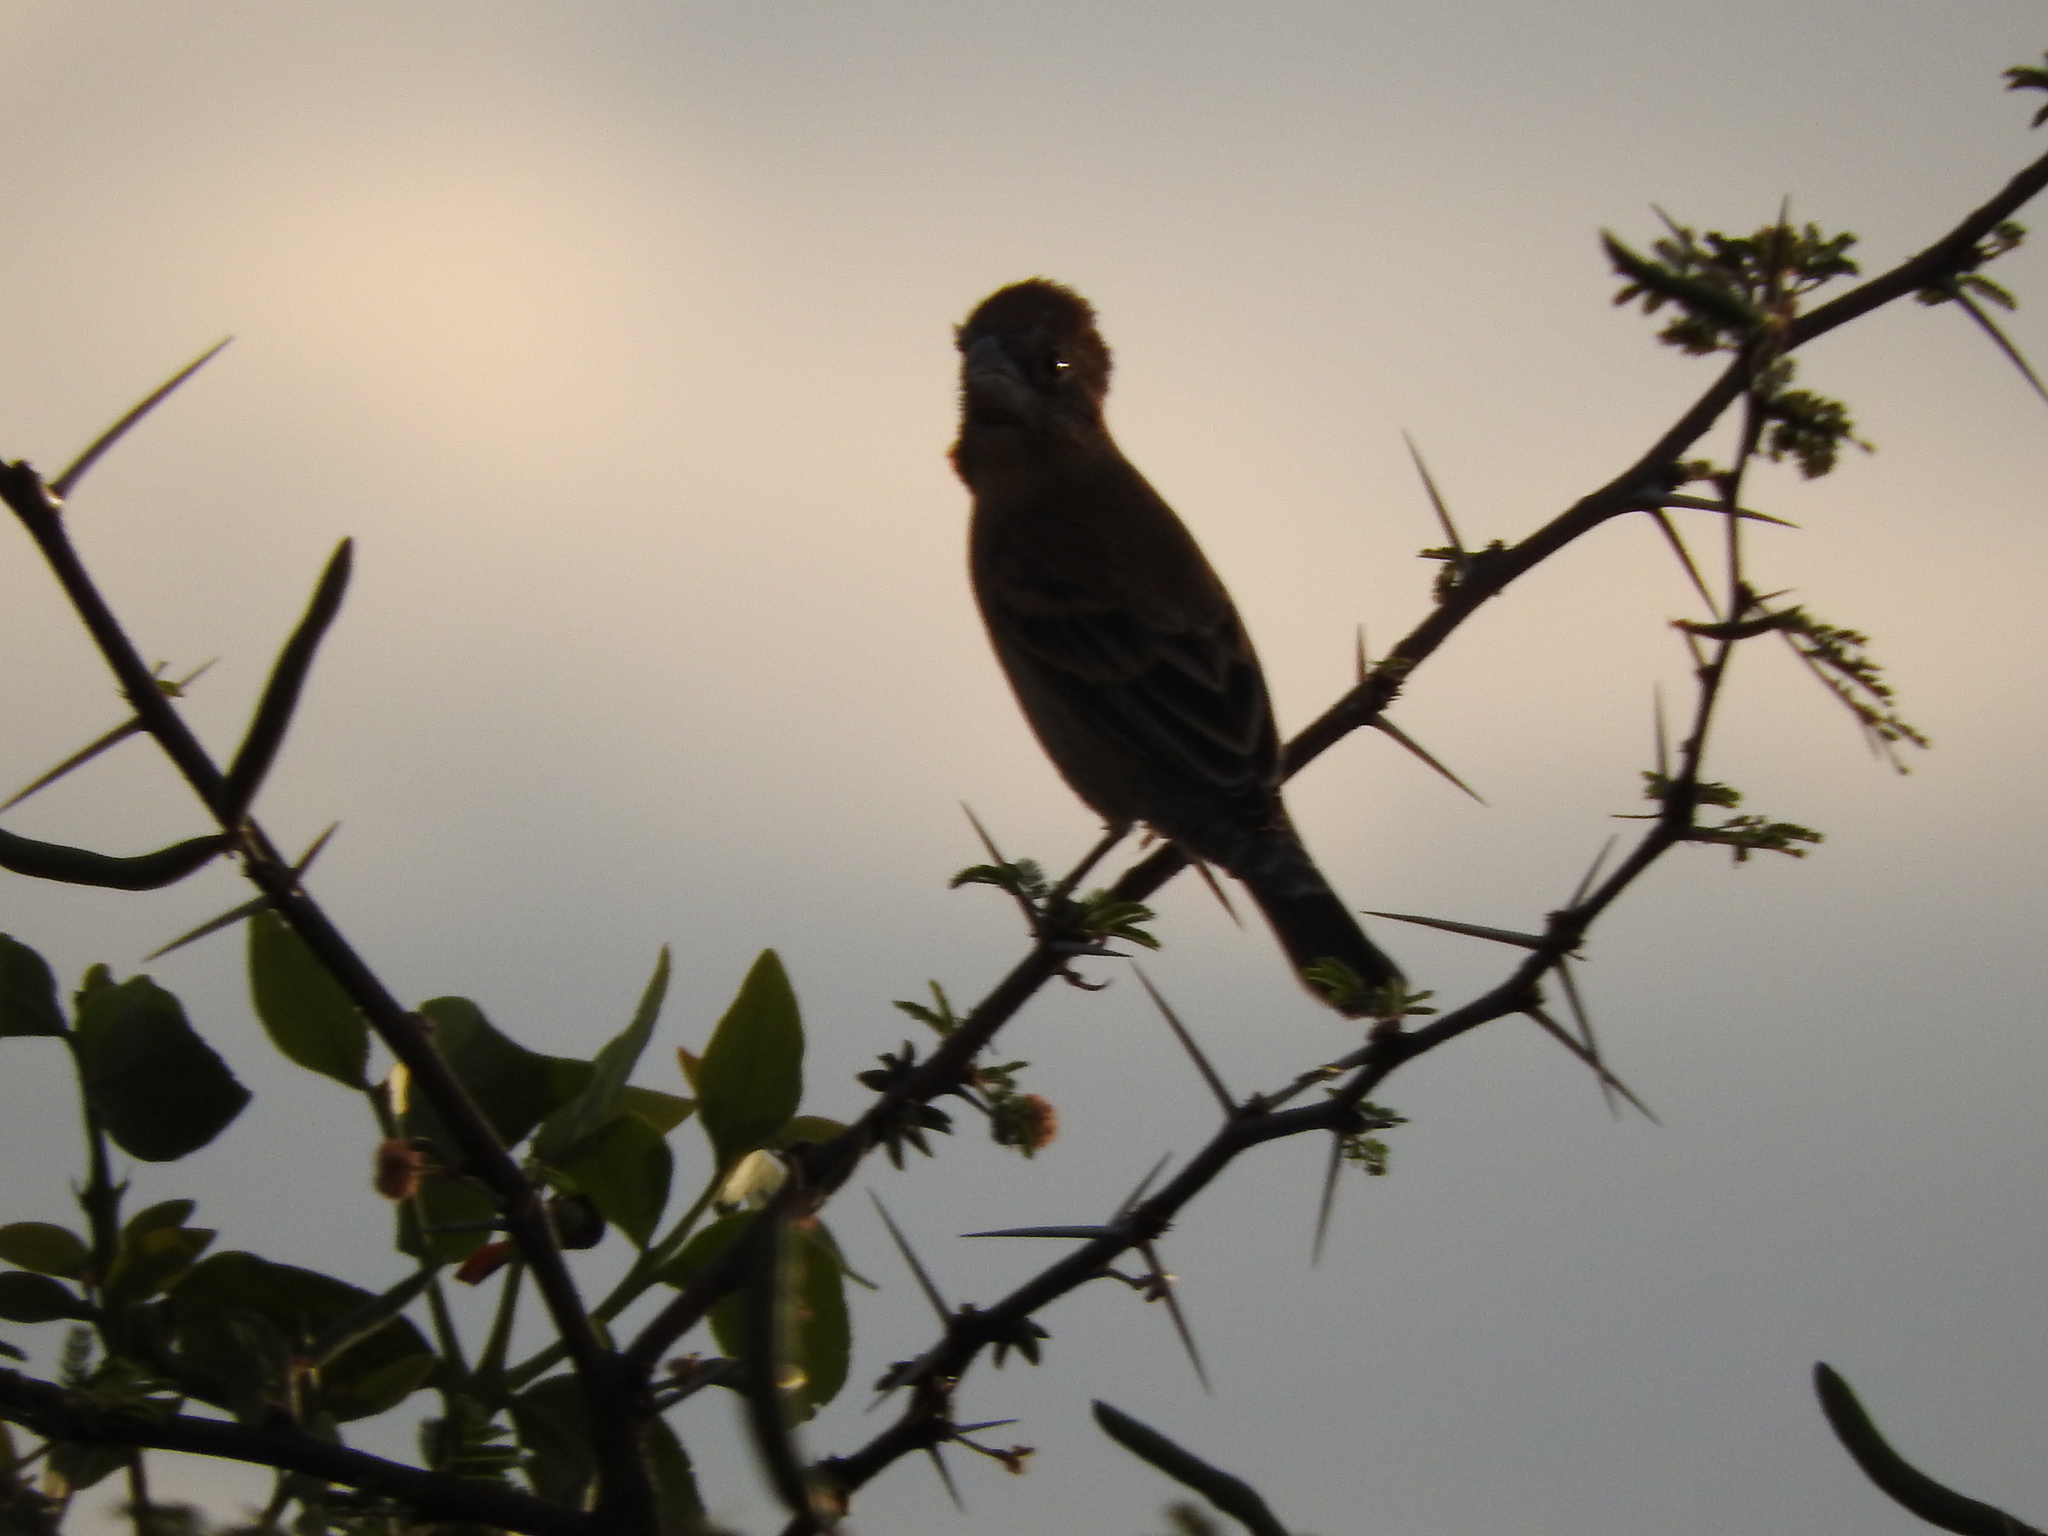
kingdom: Animalia
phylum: Chordata
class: Aves
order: Passeriformes
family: Cardinalidae
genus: Passerina
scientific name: Passerina caerulea
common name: Blue grosbeak
